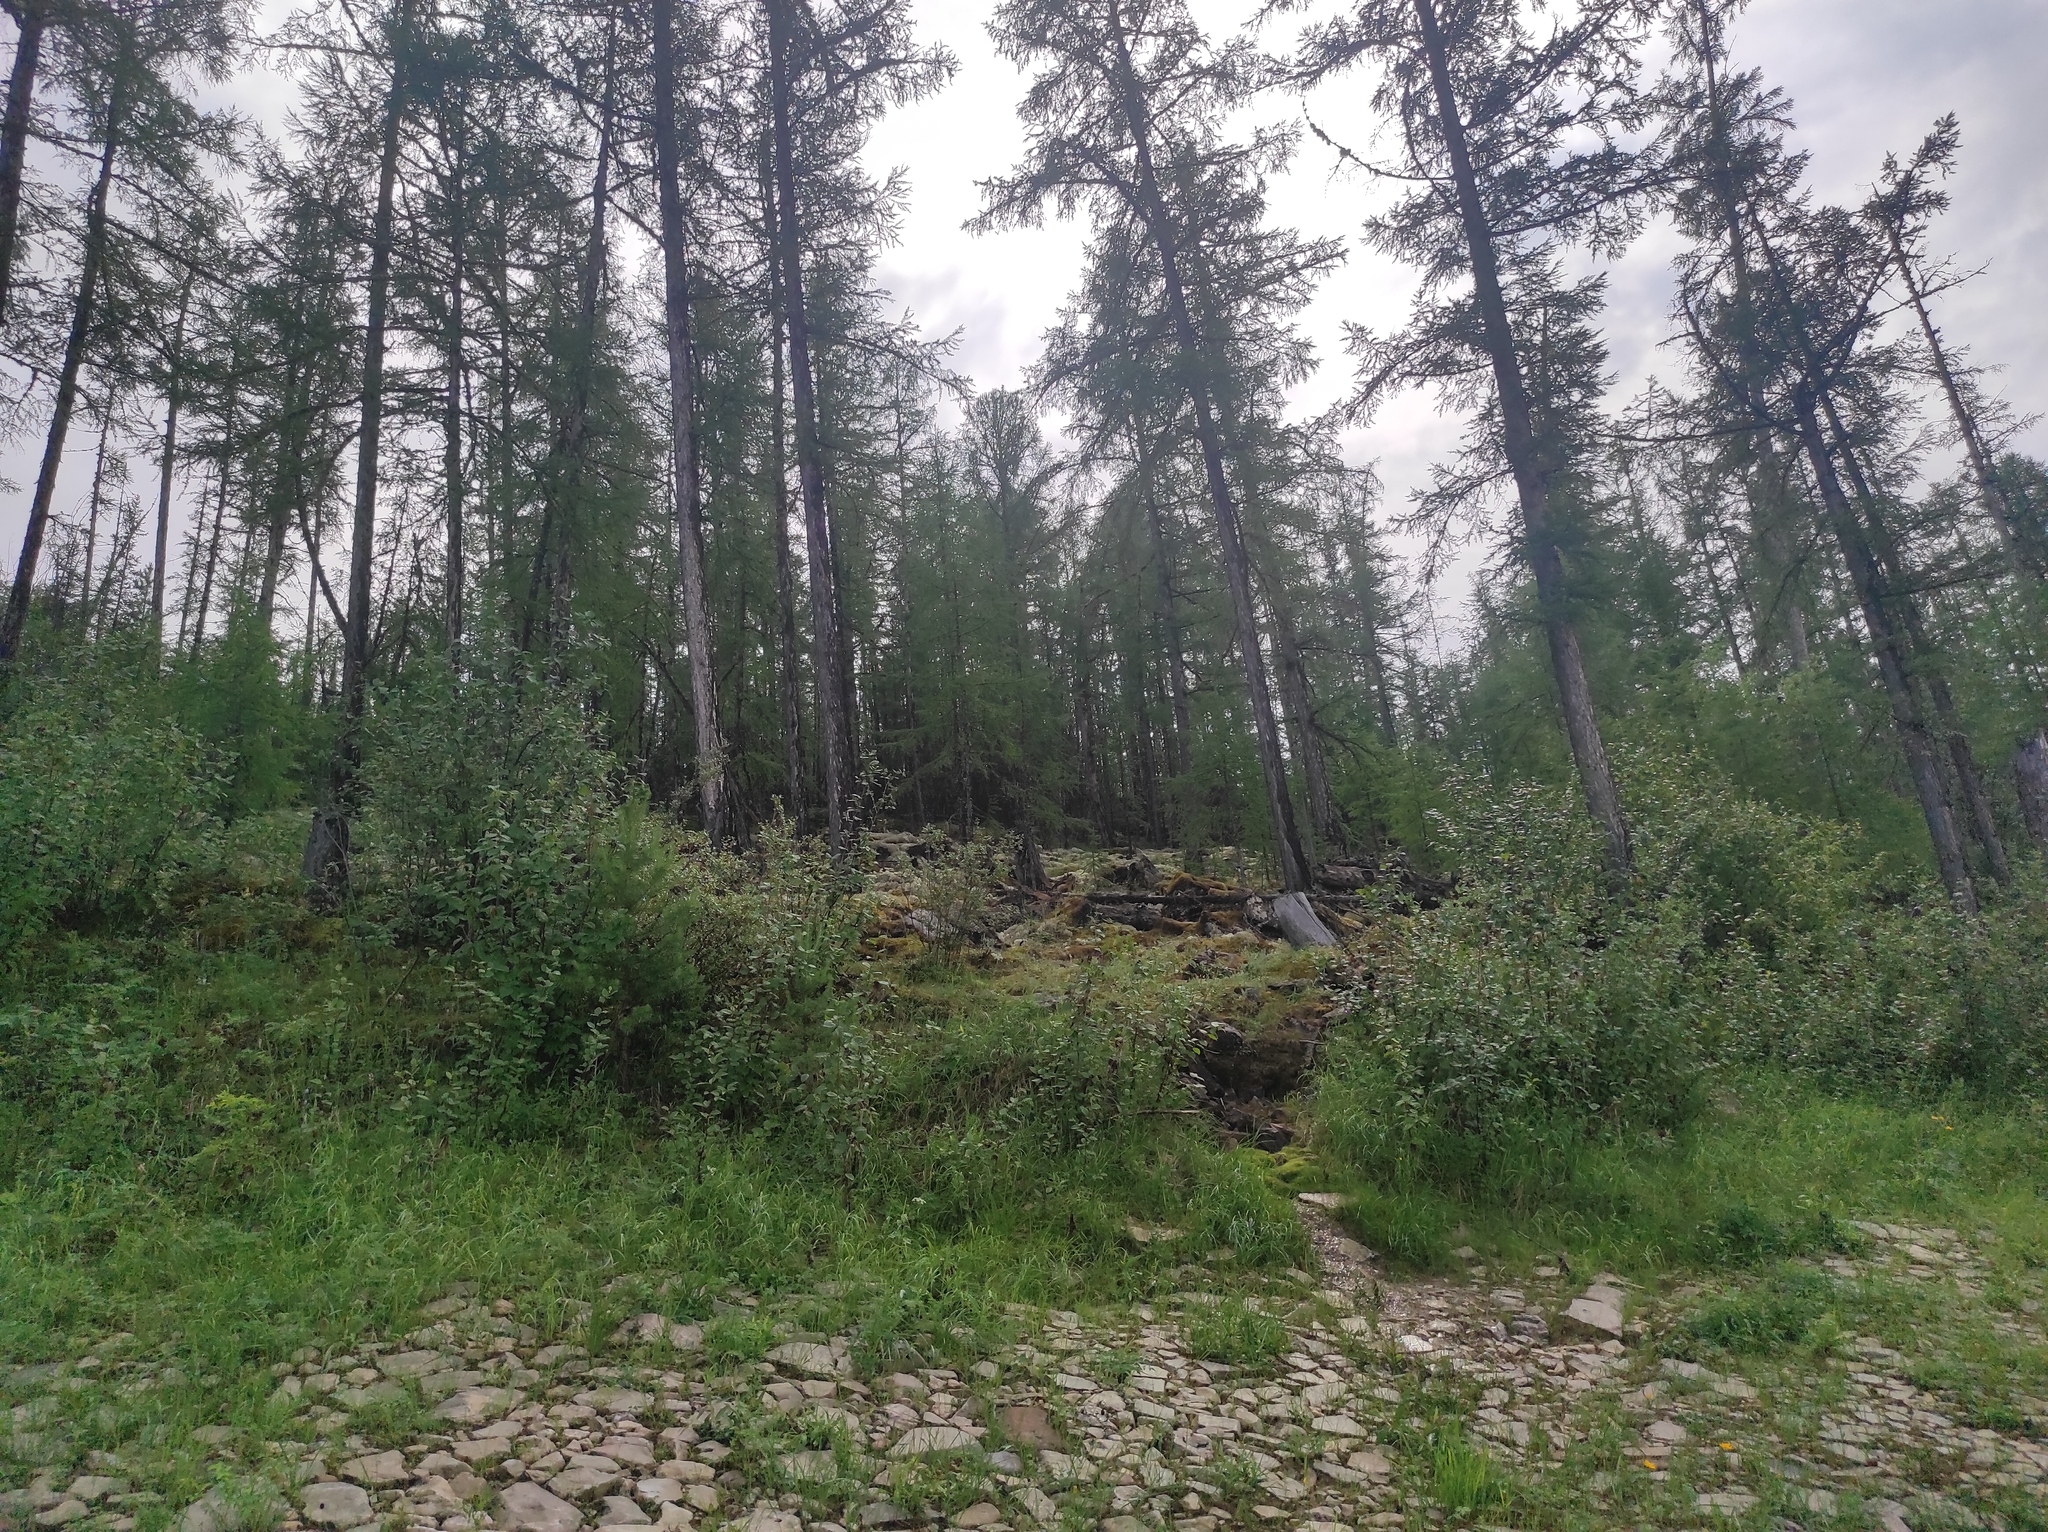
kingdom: Plantae
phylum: Tracheophyta
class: Pinopsida
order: Pinales
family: Pinaceae
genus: Larix
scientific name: Larix gmelinii
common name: Dahurian larch
